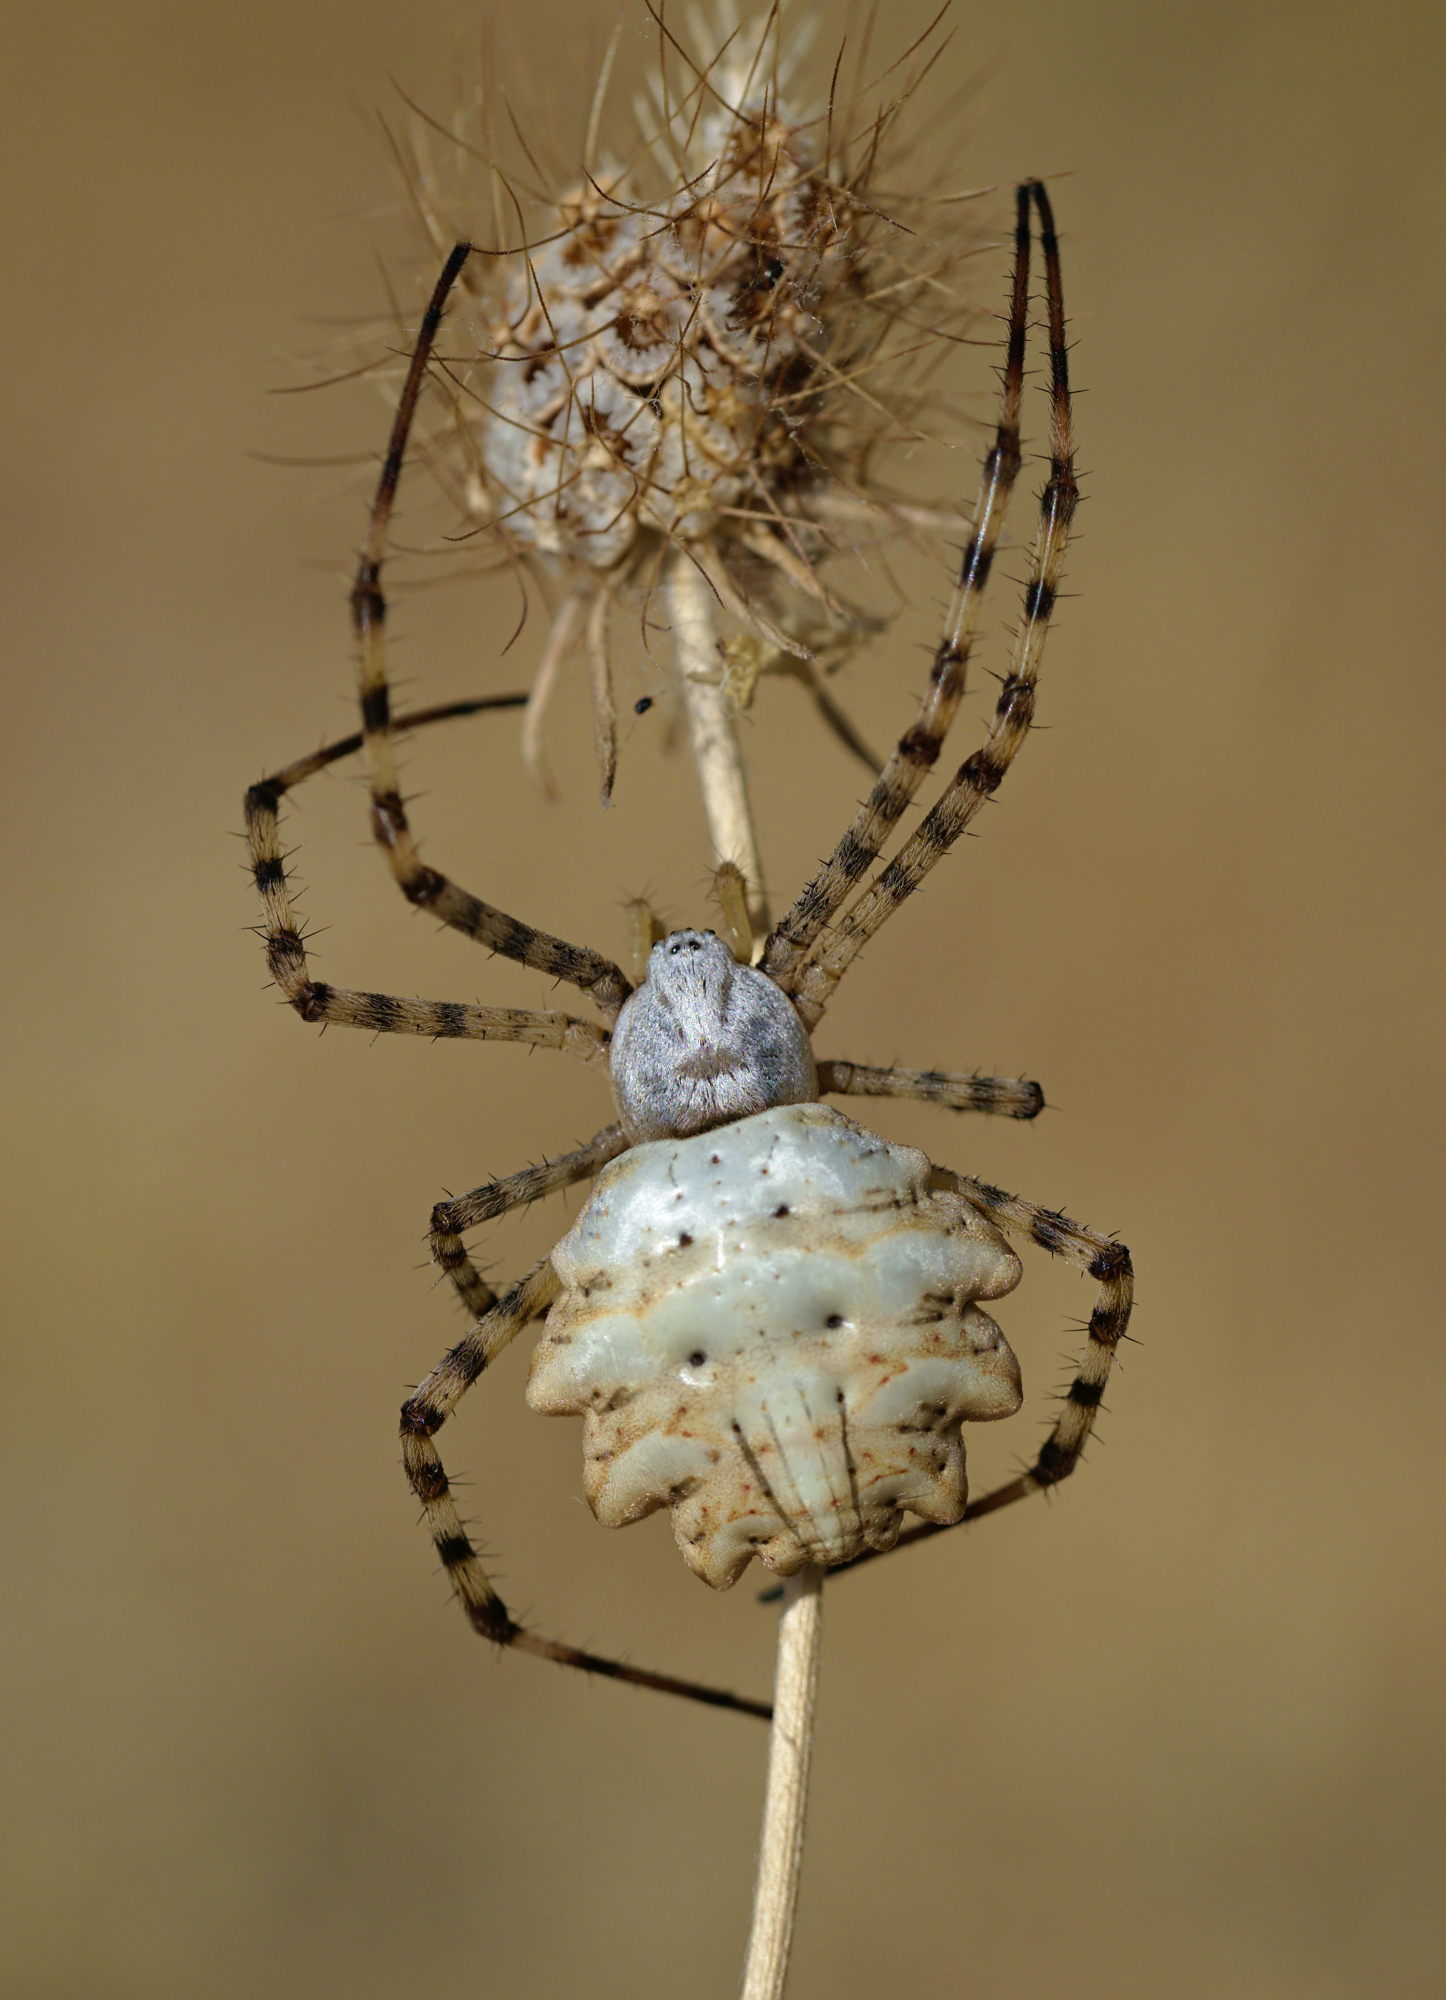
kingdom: Animalia
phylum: Arthropoda
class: Arachnida
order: Araneae
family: Araneidae
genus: Argiope
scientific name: Argiope lobata
